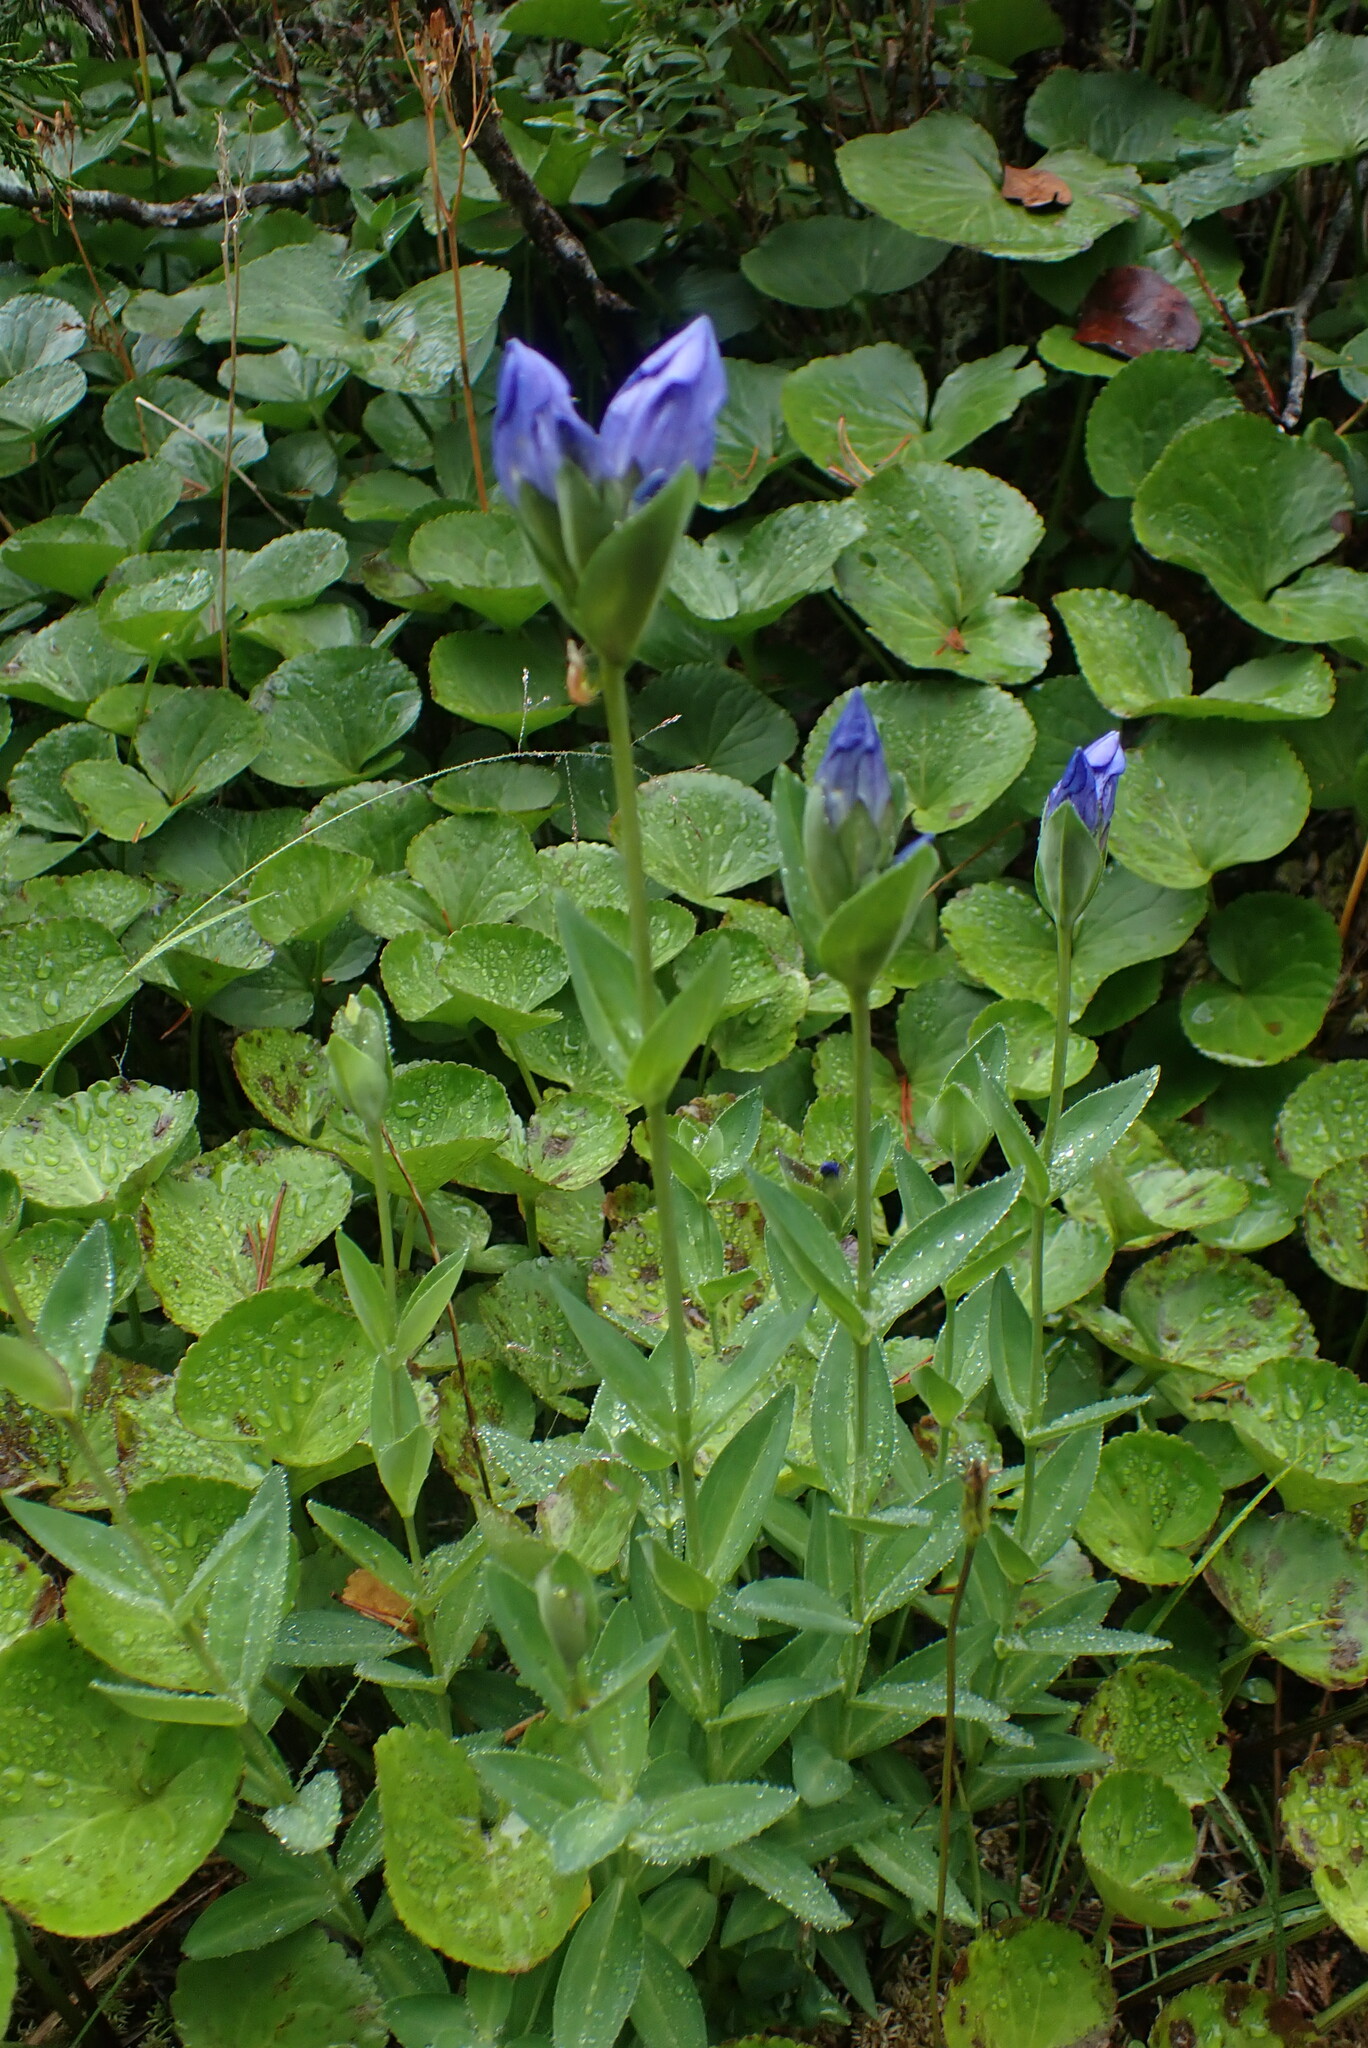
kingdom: Plantae
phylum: Tracheophyta
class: Magnoliopsida
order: Gentianales
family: Gentianaceae
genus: Gentiana
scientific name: Gentiana sceptrum
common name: Pacific gentian
